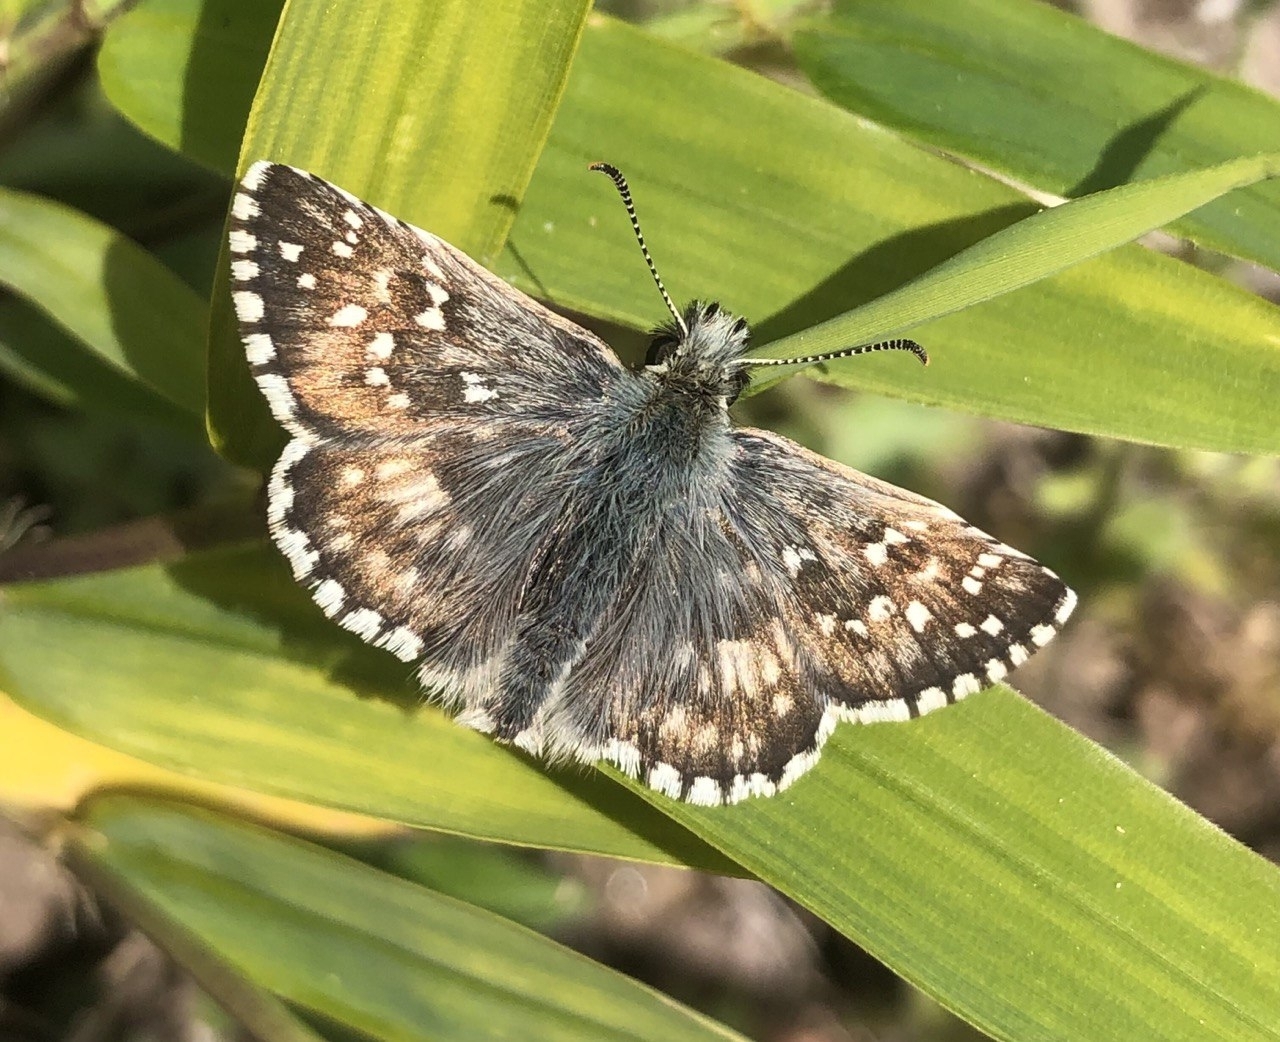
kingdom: Animalia
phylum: Arthropoda
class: Insecta
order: Lepidoptera
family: Hesperiidae
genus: Pyrgus
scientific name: Pyrgus armoricanus
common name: Oberthür's grizzled skipper
